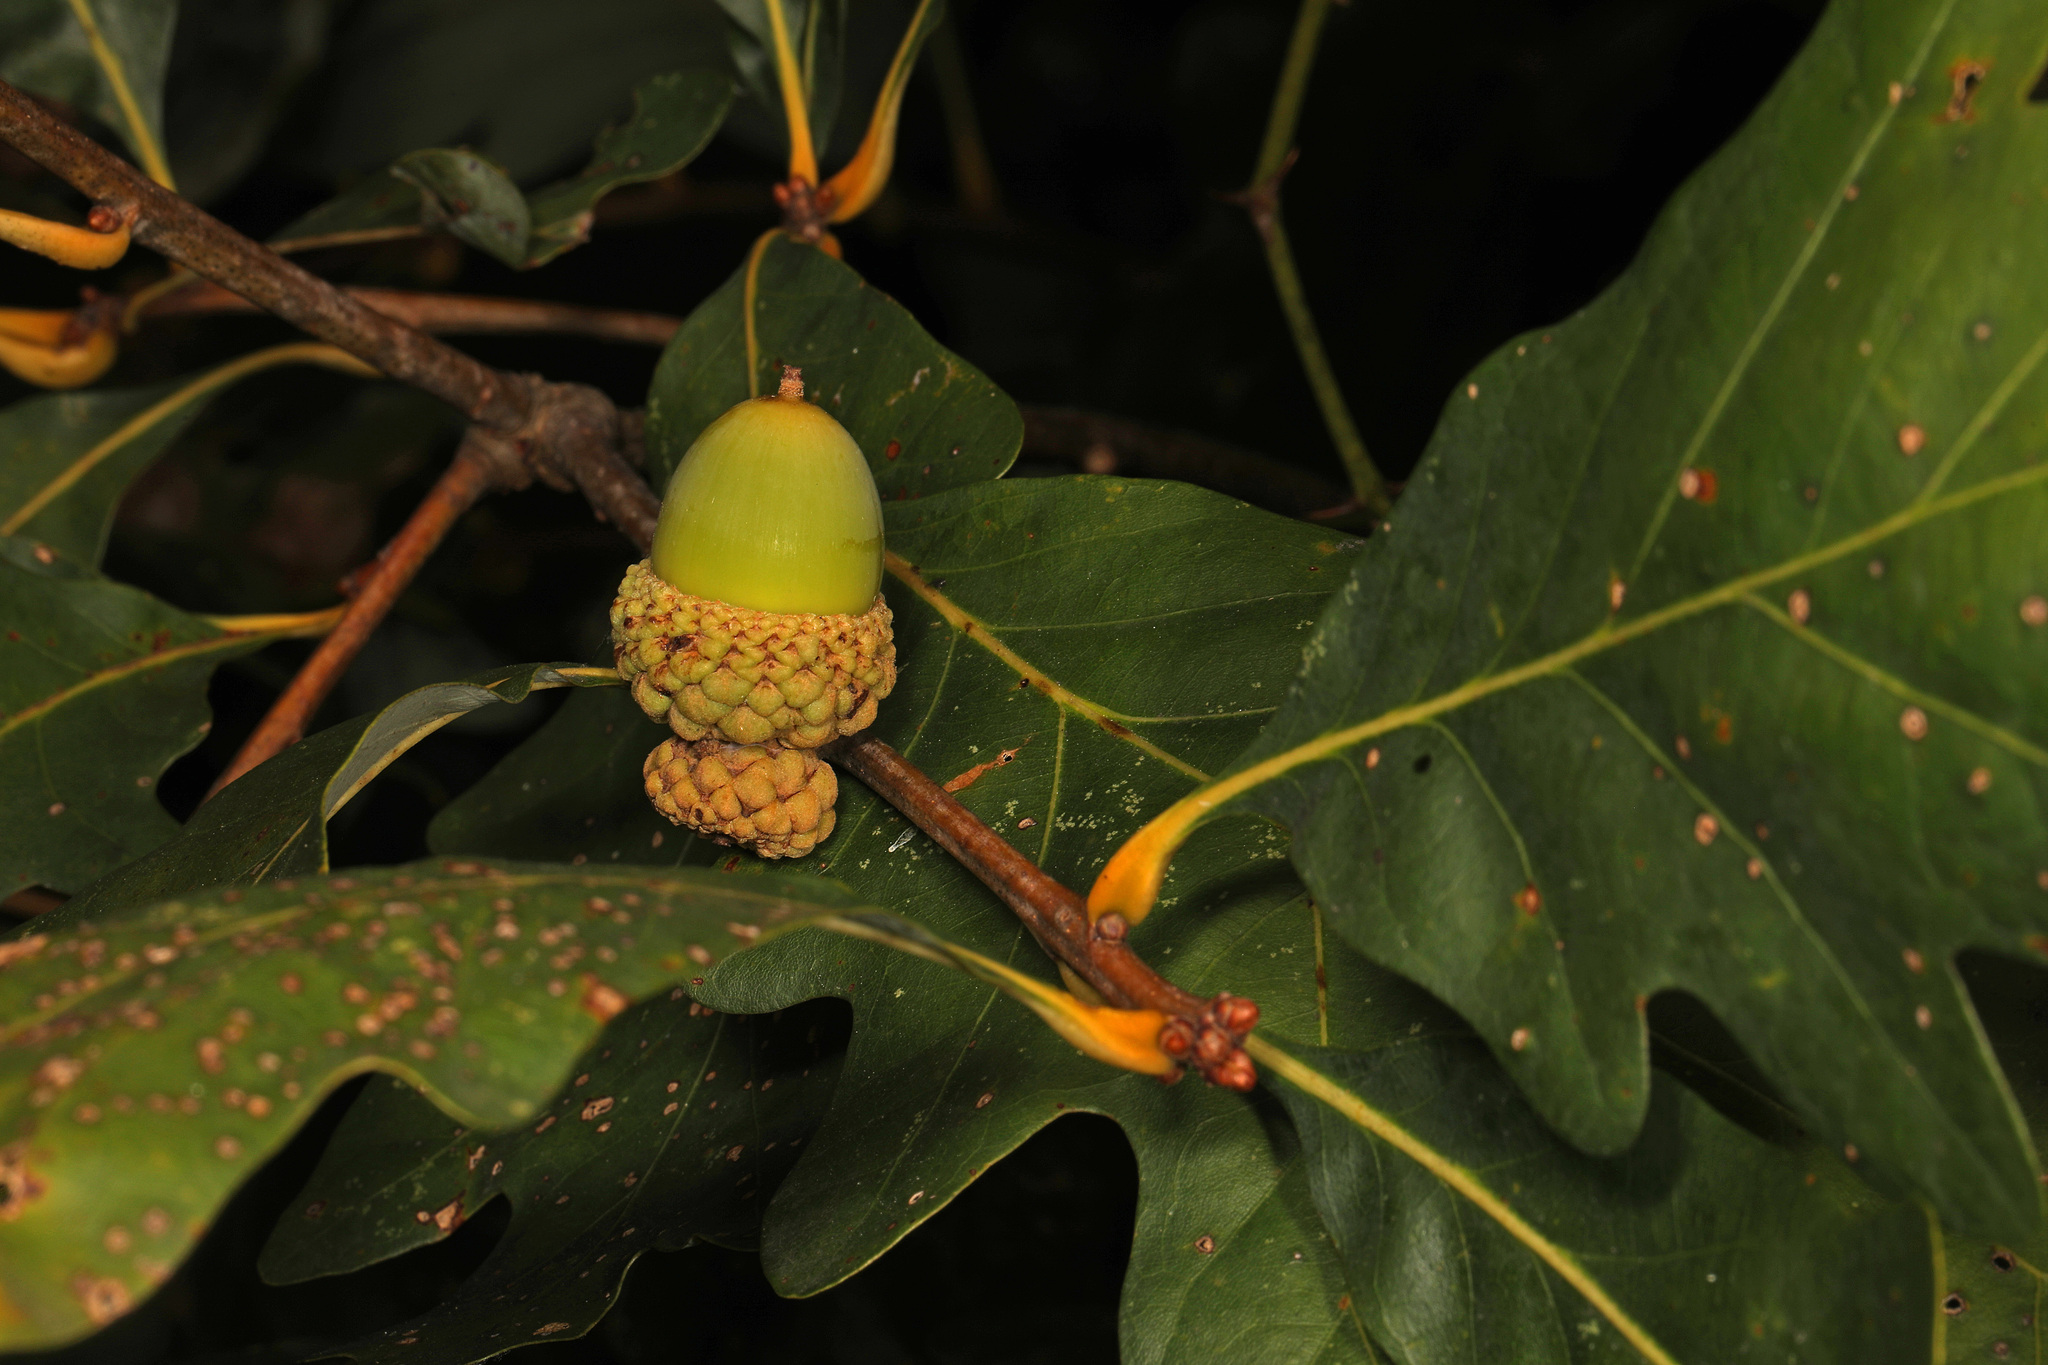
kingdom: Plantae
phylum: Tracheophyta
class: Magnoliopsida
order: Fagales
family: Fagaceae
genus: Quercus
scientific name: Quercus alba
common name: White oak
